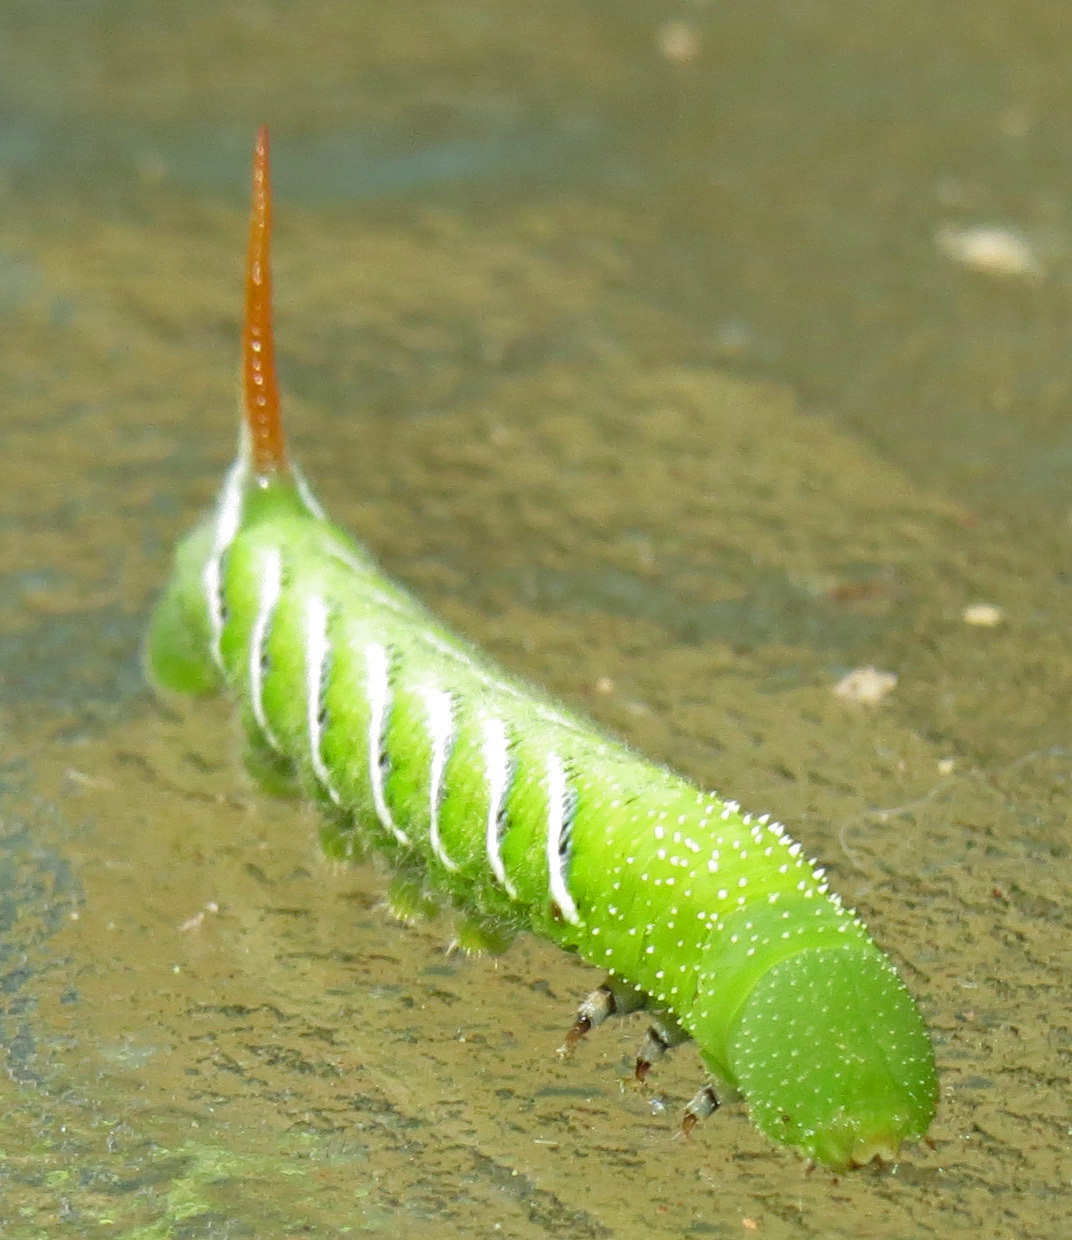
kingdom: Animalia
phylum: Arthropoda
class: Insecta
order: Lepidoptera
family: Sphingidae
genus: Manduca
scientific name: Manduca sexta
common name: Carolina sphinx
